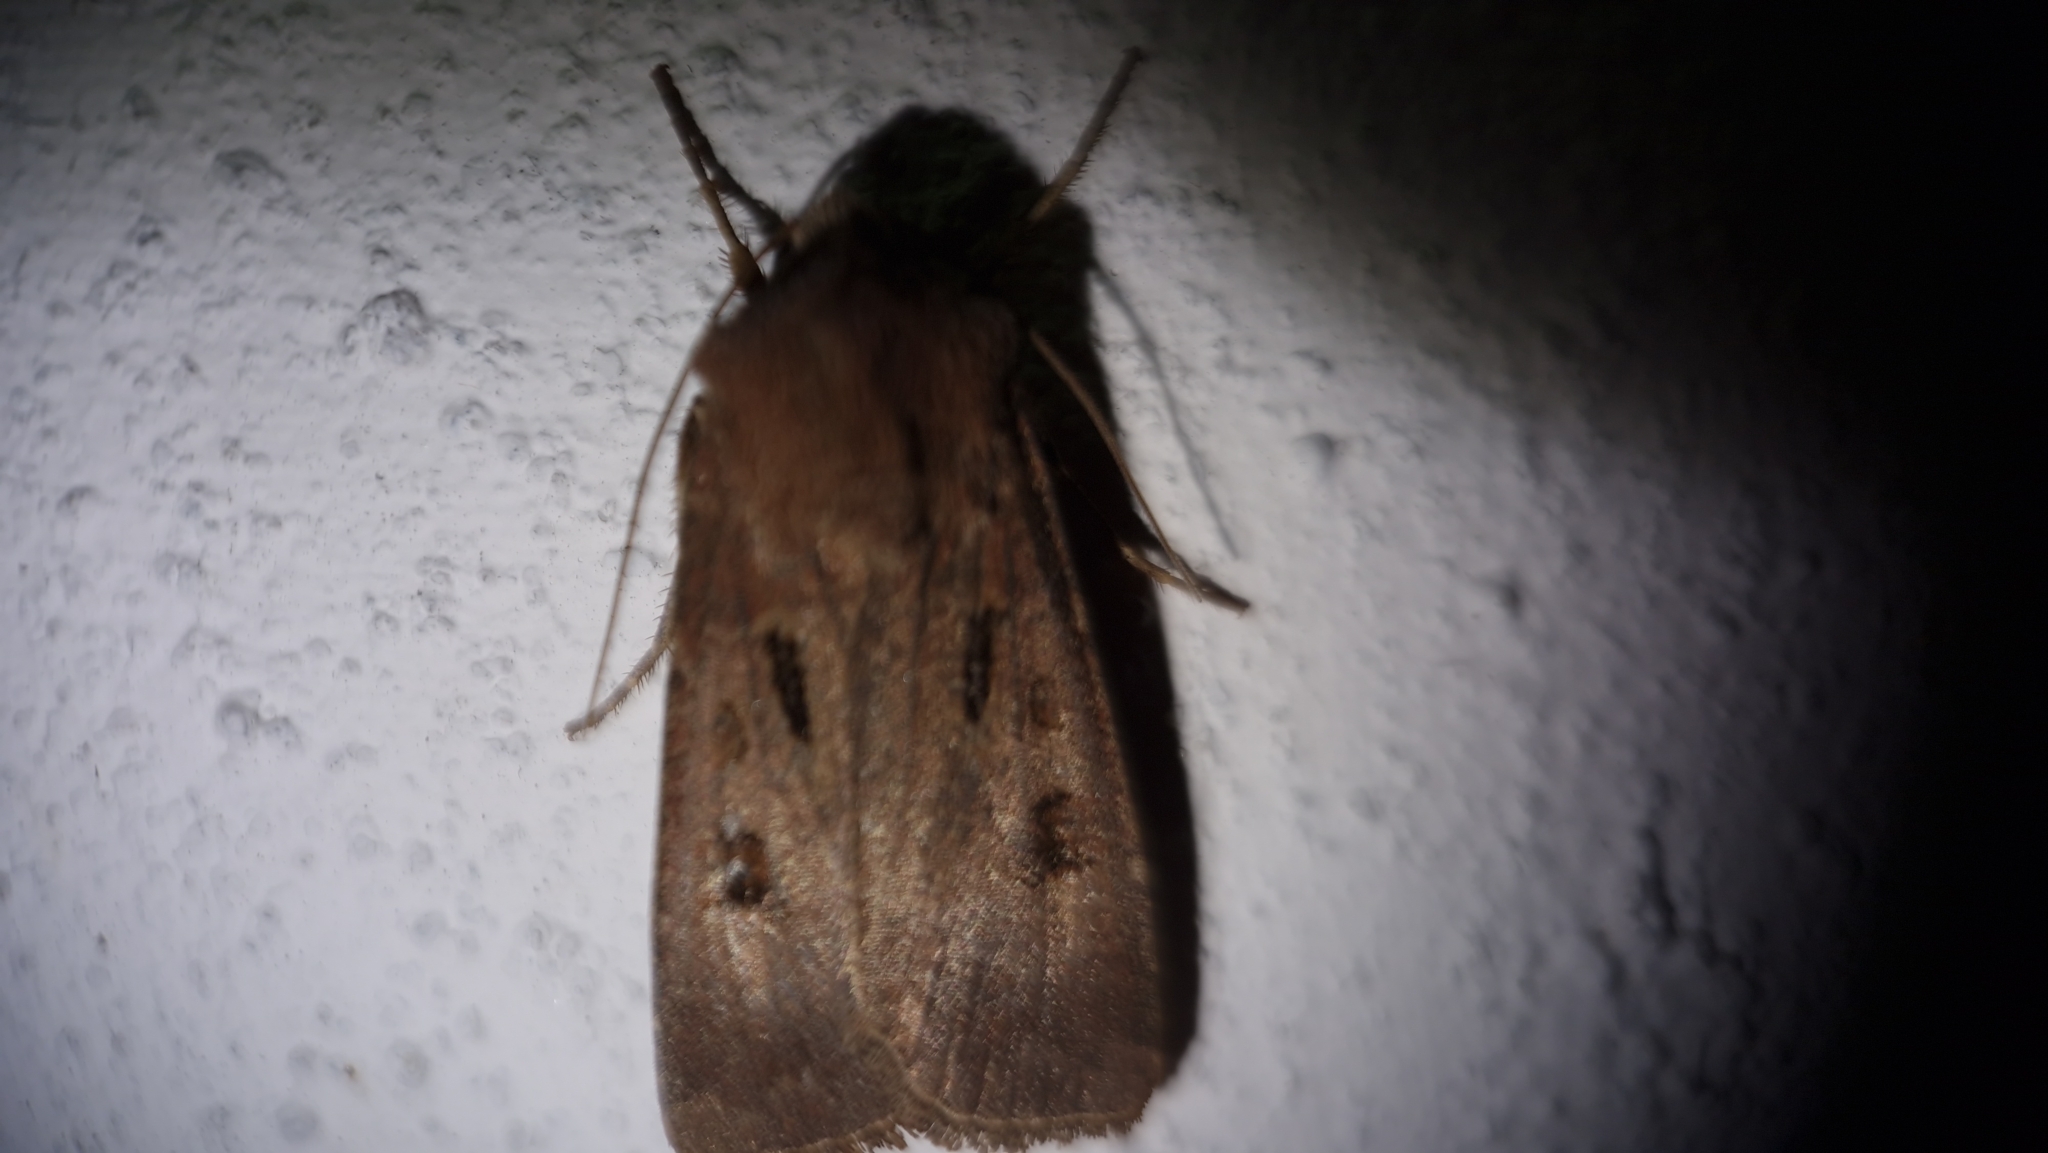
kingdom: Animalia
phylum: Arthropoda
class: Insecta
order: Lepidoptera
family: Noctuidae
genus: Agrotis
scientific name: Agrotis exclamationis
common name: Heart and dart
